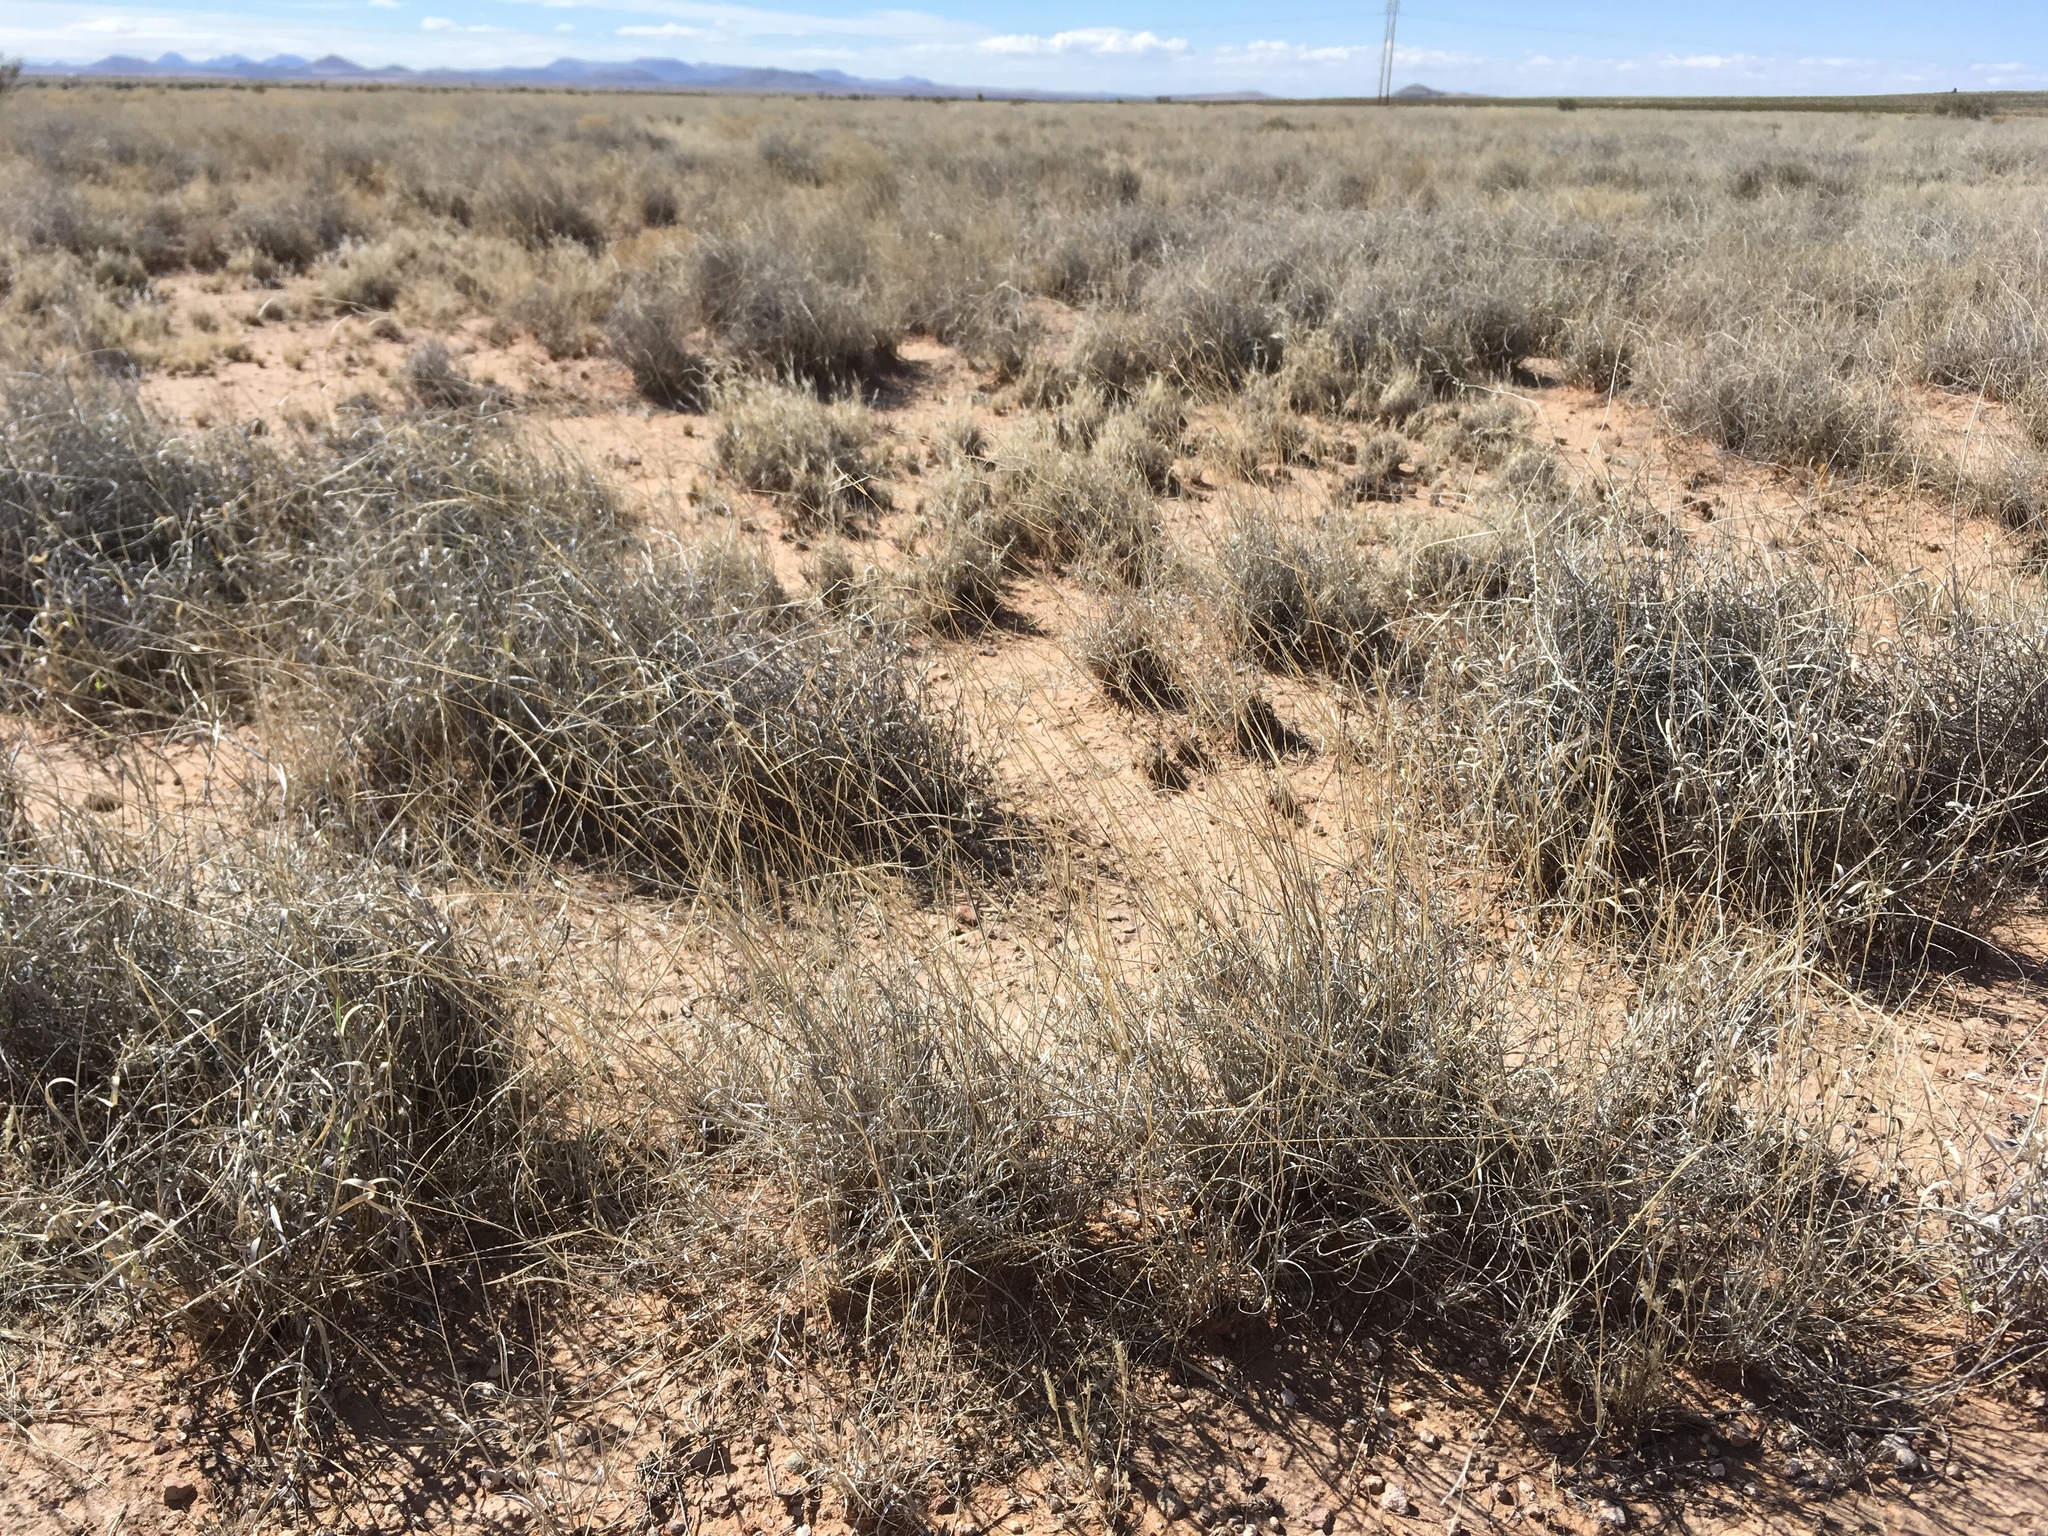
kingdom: Plantae
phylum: Tracheophyta
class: Liliopsida
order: Poales
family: Poaceae
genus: Bouteloua
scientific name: Bouteloua eriopoda
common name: Woolly foot grama
